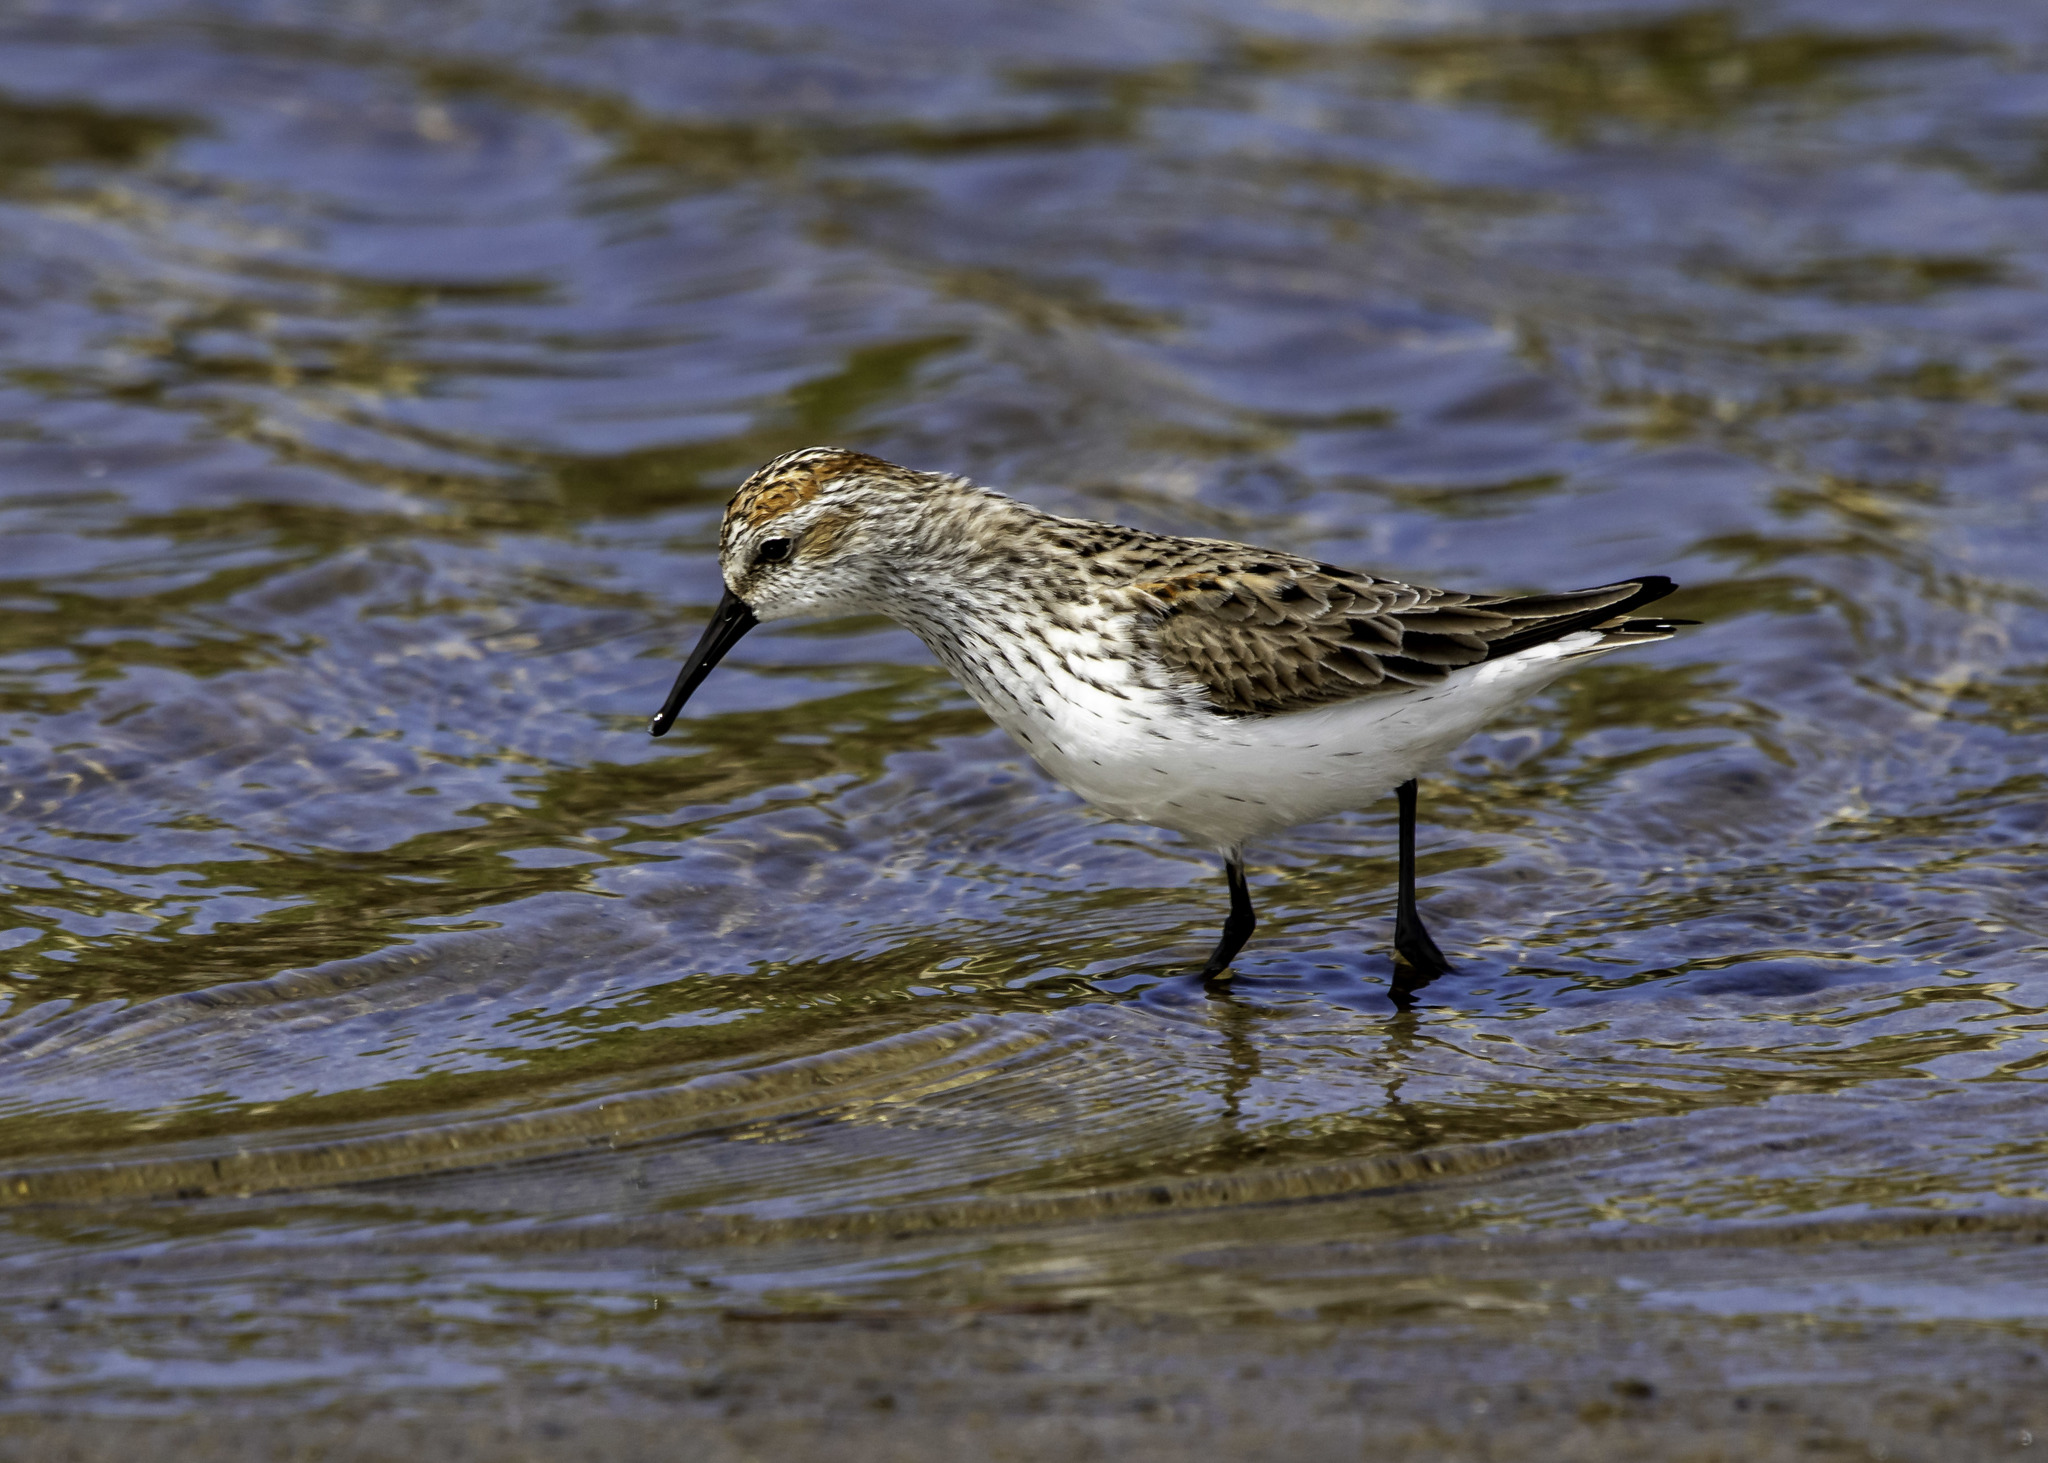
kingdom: Animalia
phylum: Chordata
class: Aves
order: Charadriiformes
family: Scolopacidae
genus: Calidris
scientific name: Calidris mauri
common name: Western sandpiper
